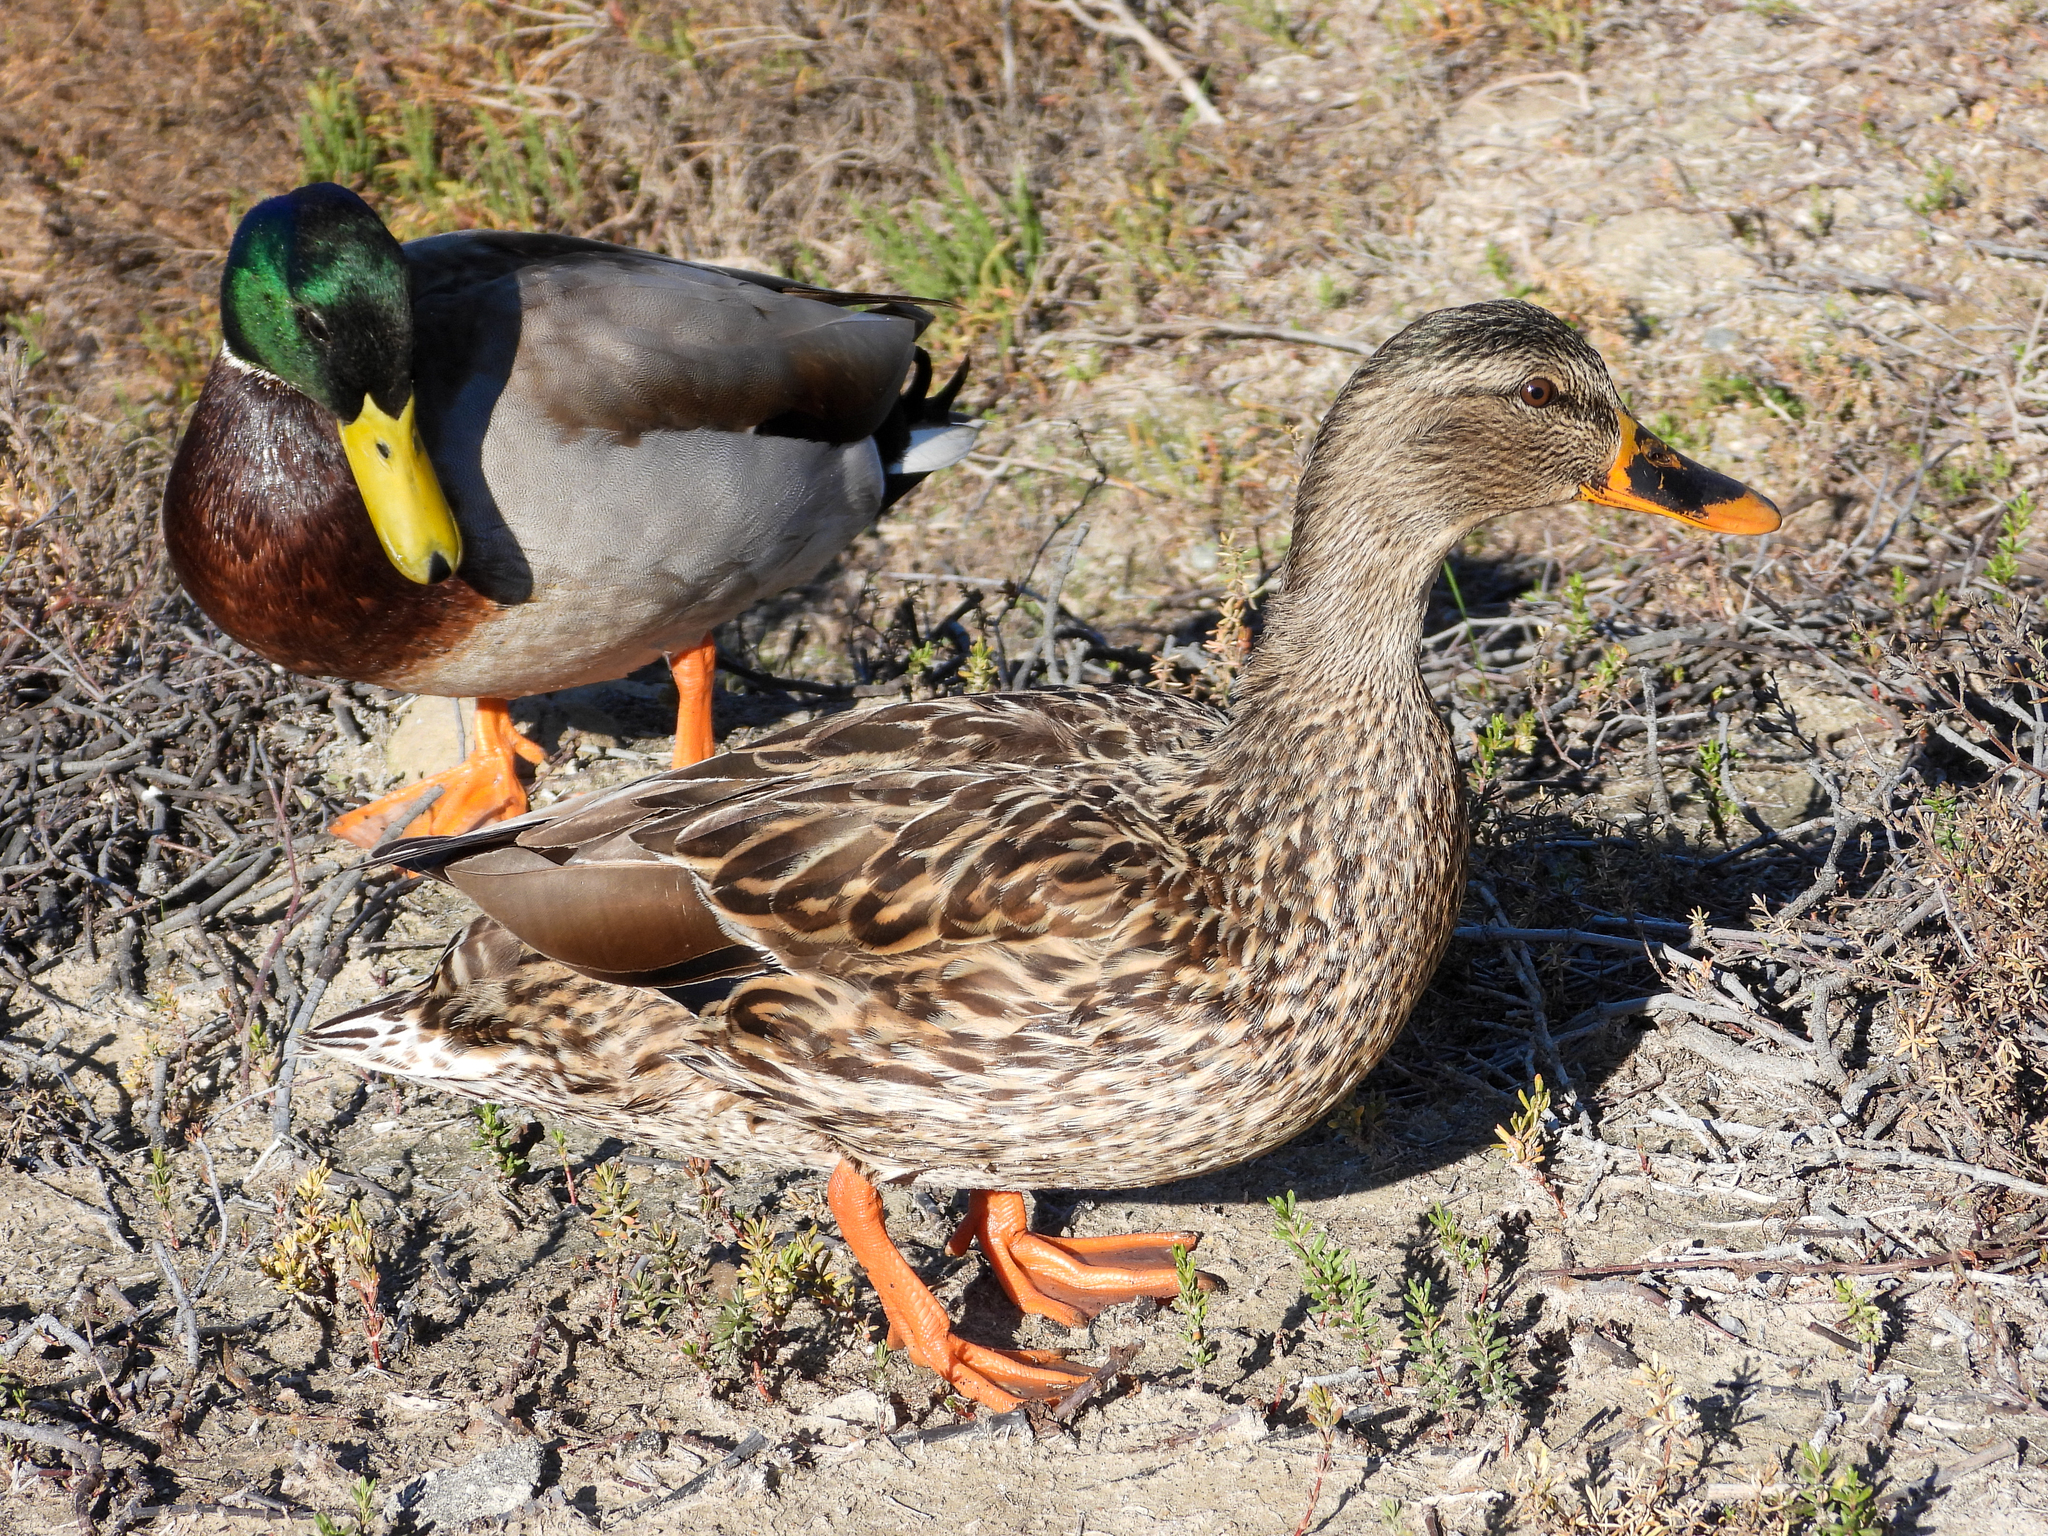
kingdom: Animalia
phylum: Chordata
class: Aves
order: Anseriformes
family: Anatidae
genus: Anas
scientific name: Anas platyrhynchos
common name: Mallard
